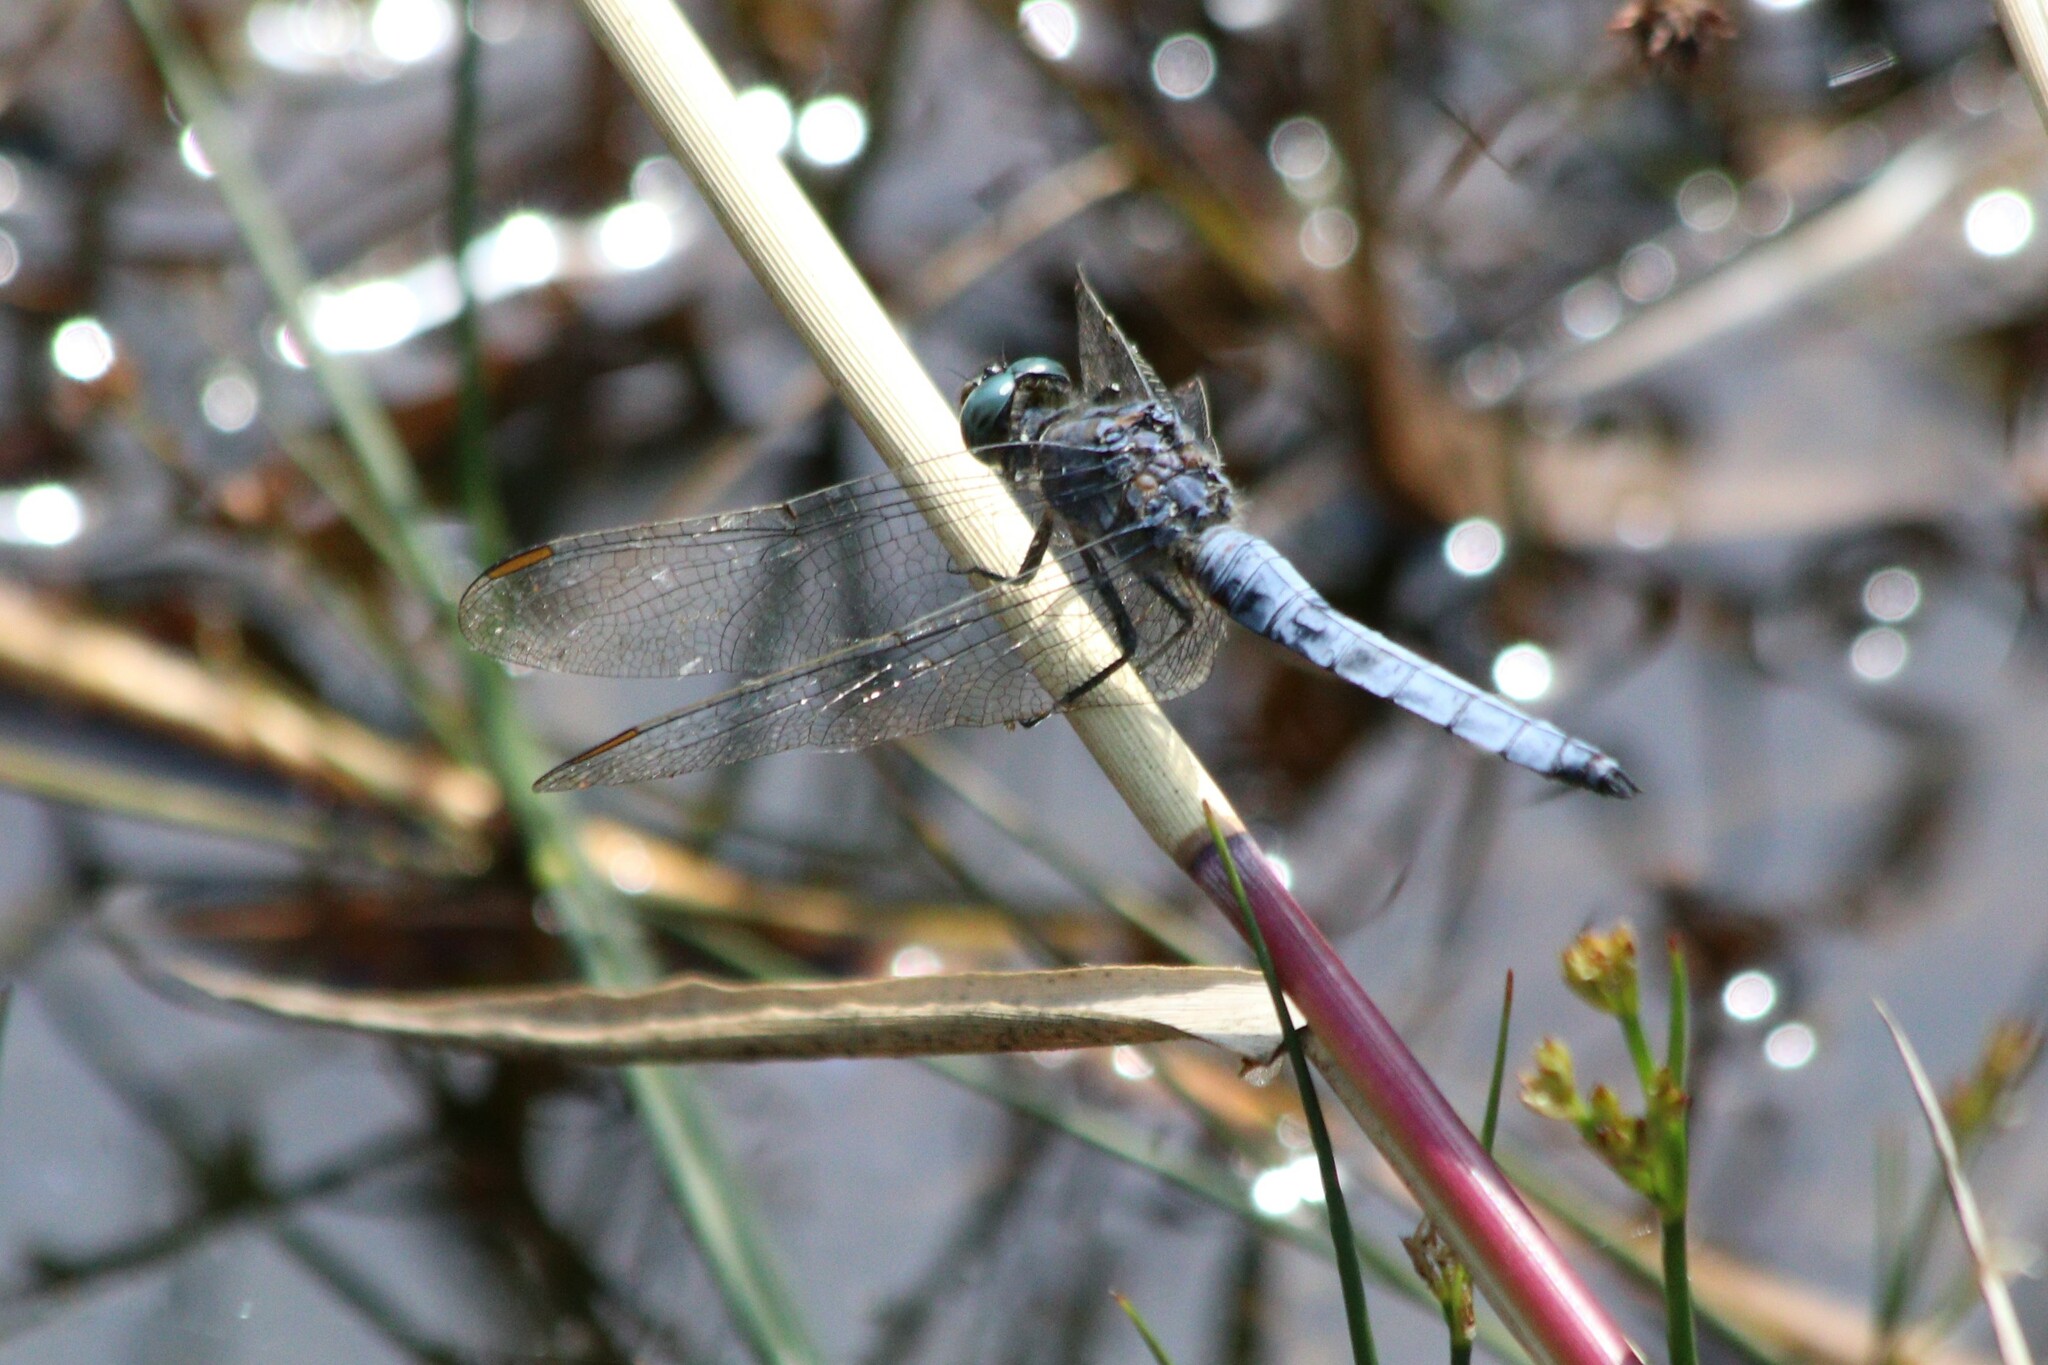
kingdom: Animalia
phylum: Arthropoda
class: Insecta
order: Odonata
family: Libellulidae
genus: Orthetrum
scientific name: Orthetrum coerulescens
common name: Keeled skimmer
